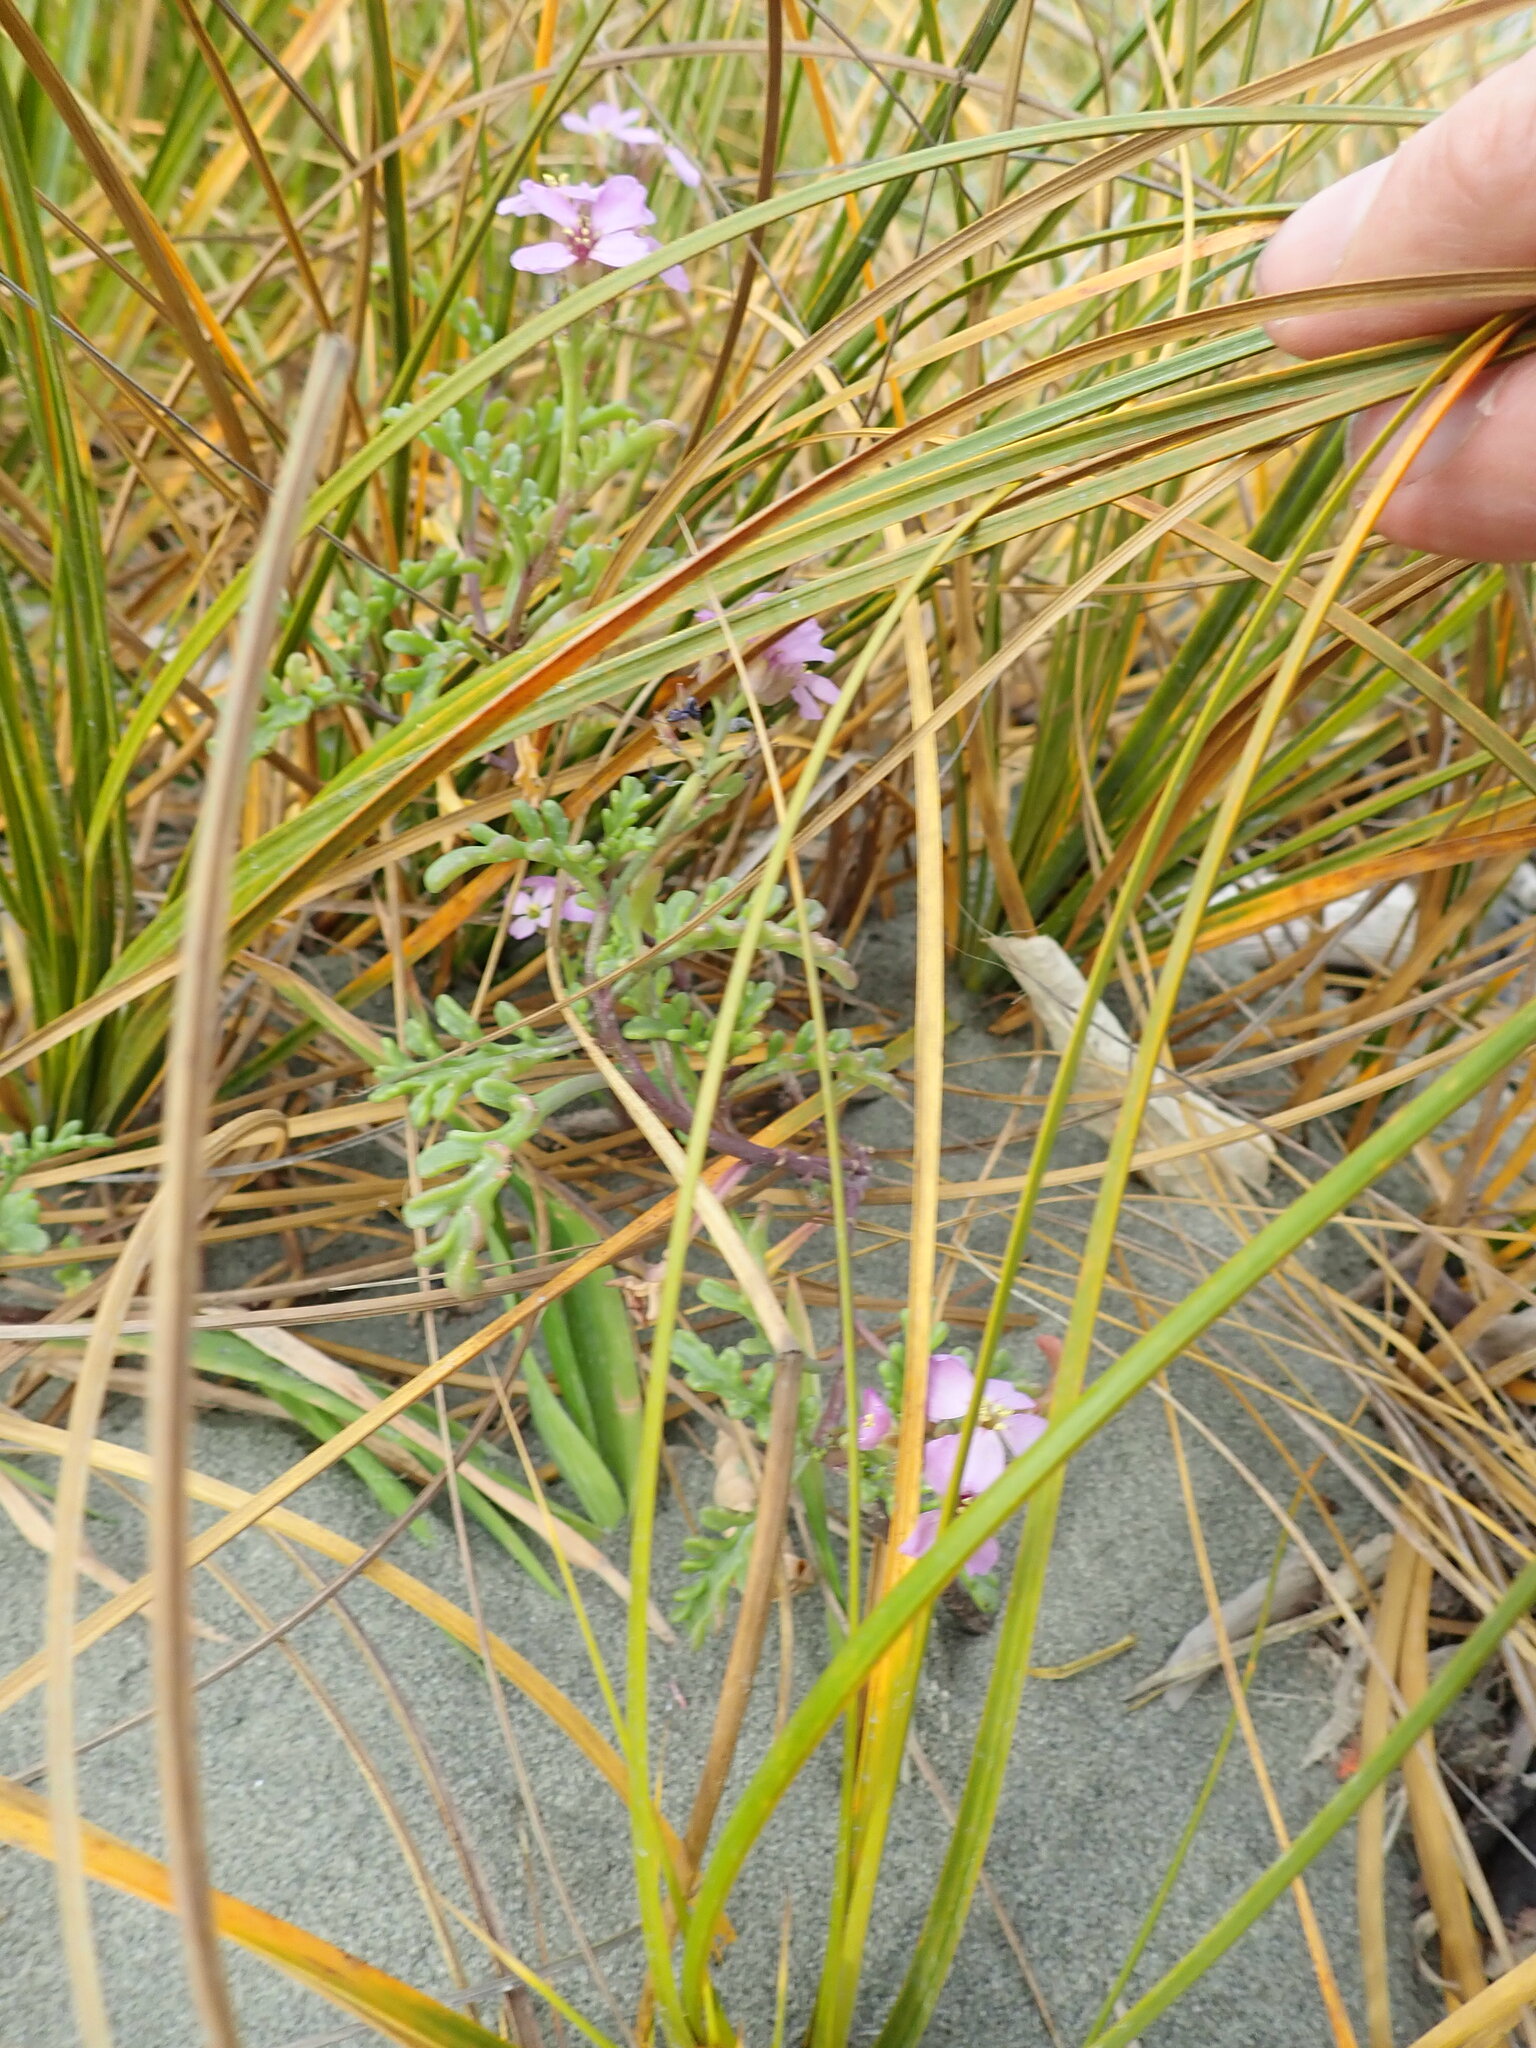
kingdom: Plantae
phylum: Tracheophyta
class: Magnoliopsida
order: Brassicales
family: Brassicaceae
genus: Cakile
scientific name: Cakile maritima
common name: Sea rocket
